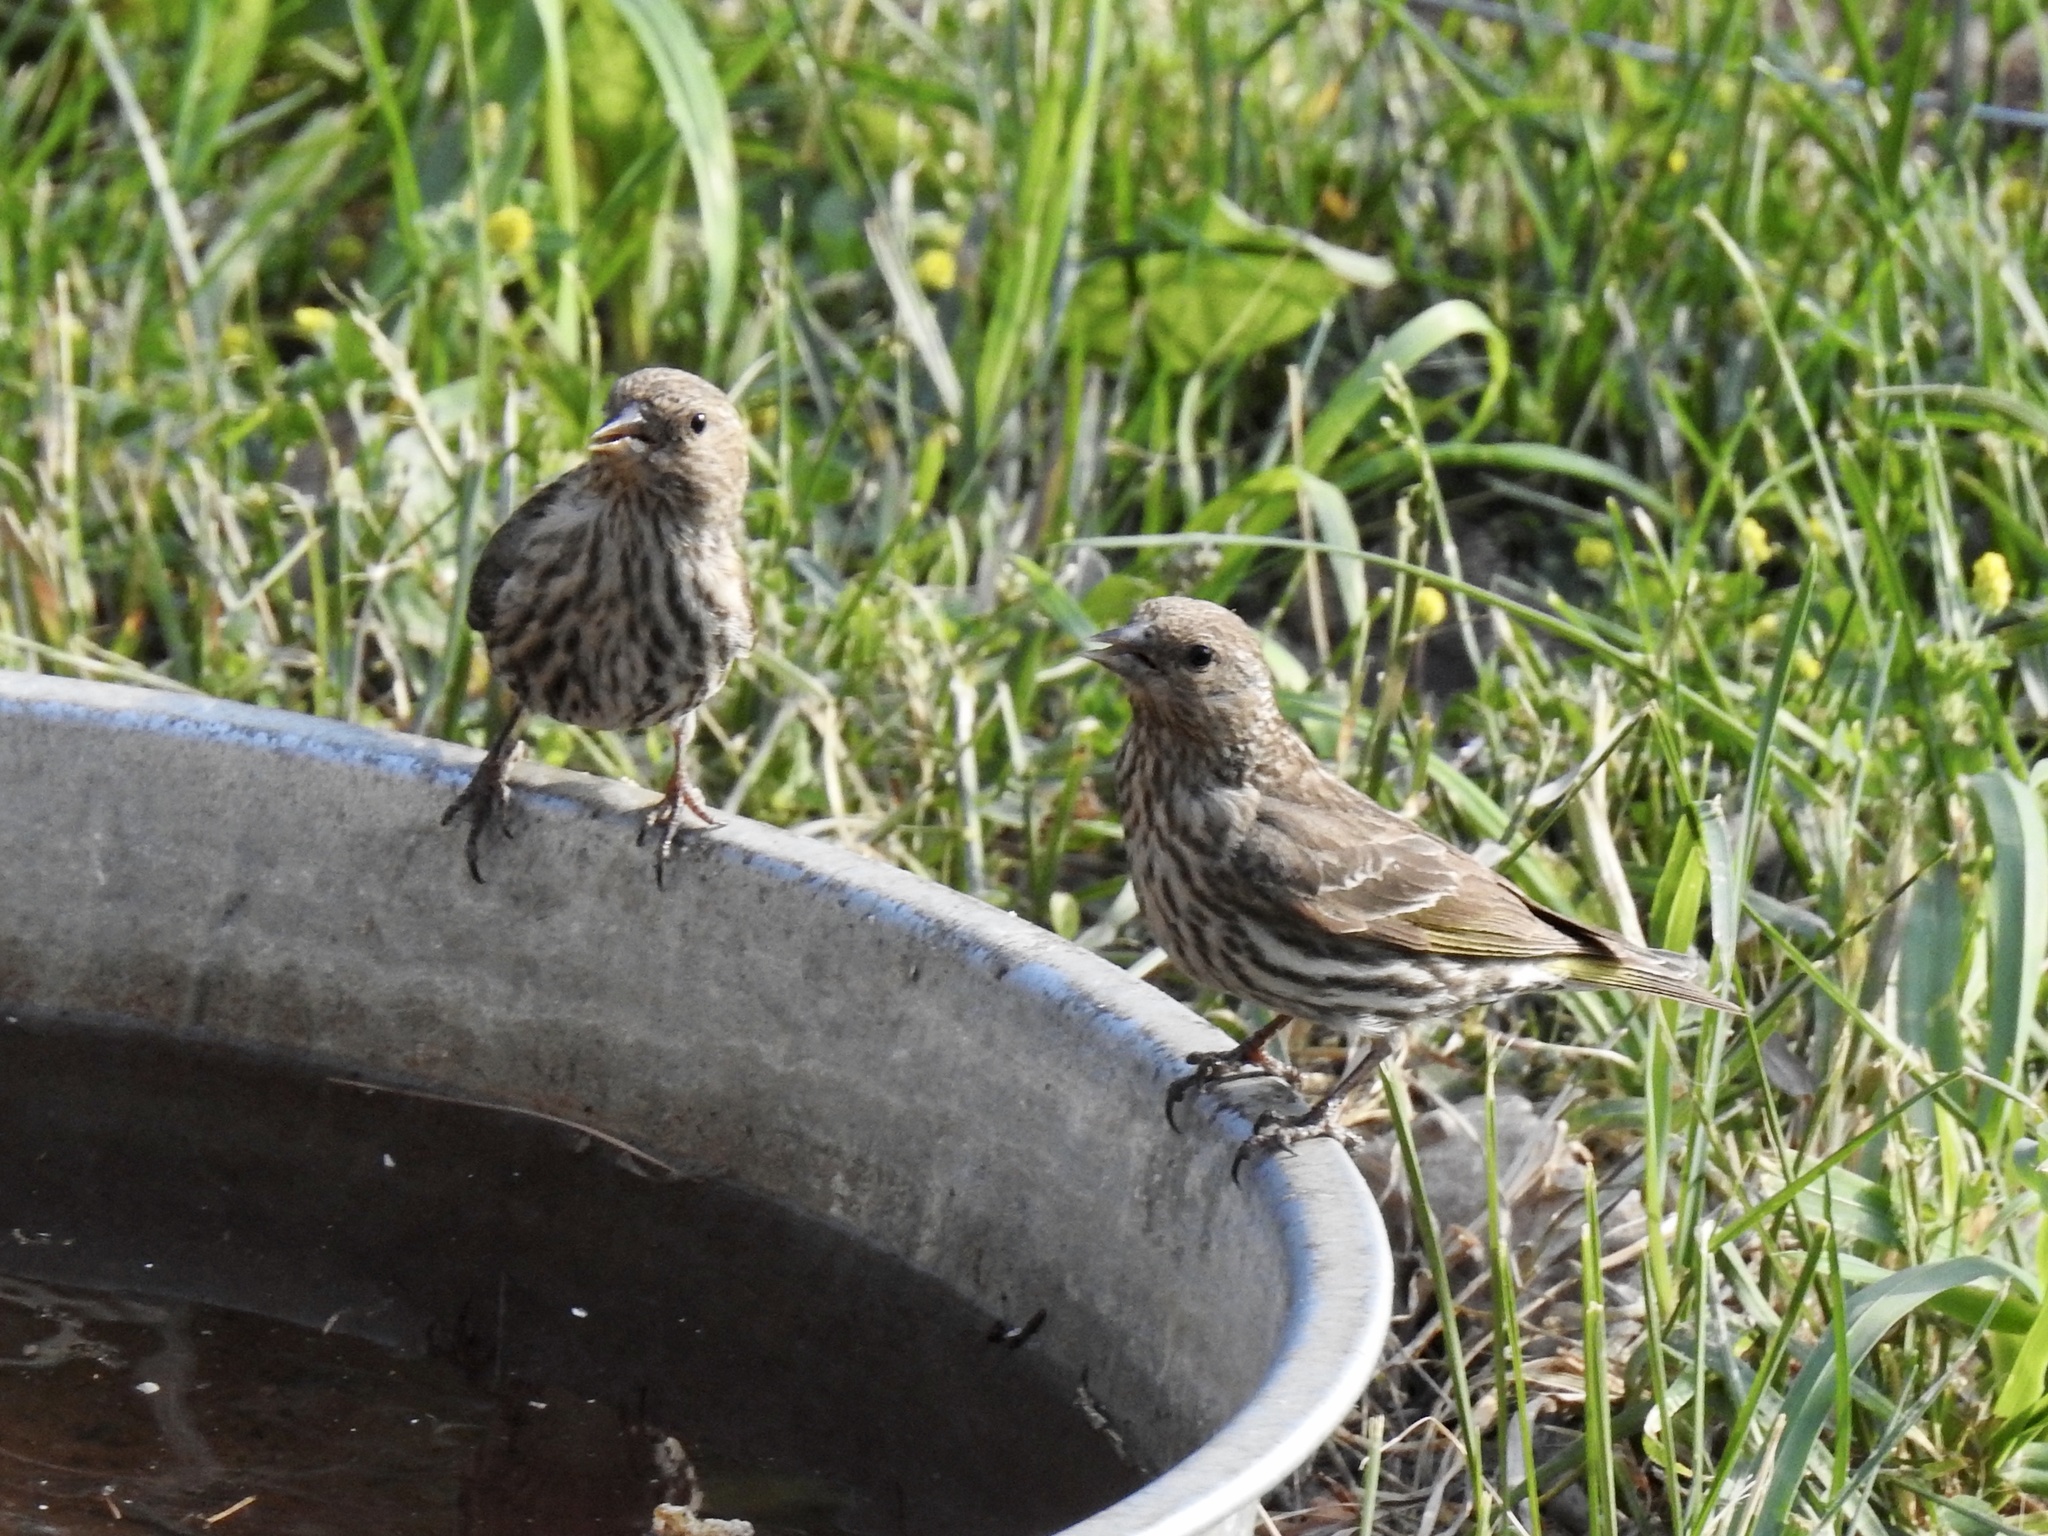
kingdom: Animalia
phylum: Chordata
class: Aves
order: Passeriformes
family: Fringillidae
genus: Spinus
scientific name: Spinus pinus
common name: Pine siskin
